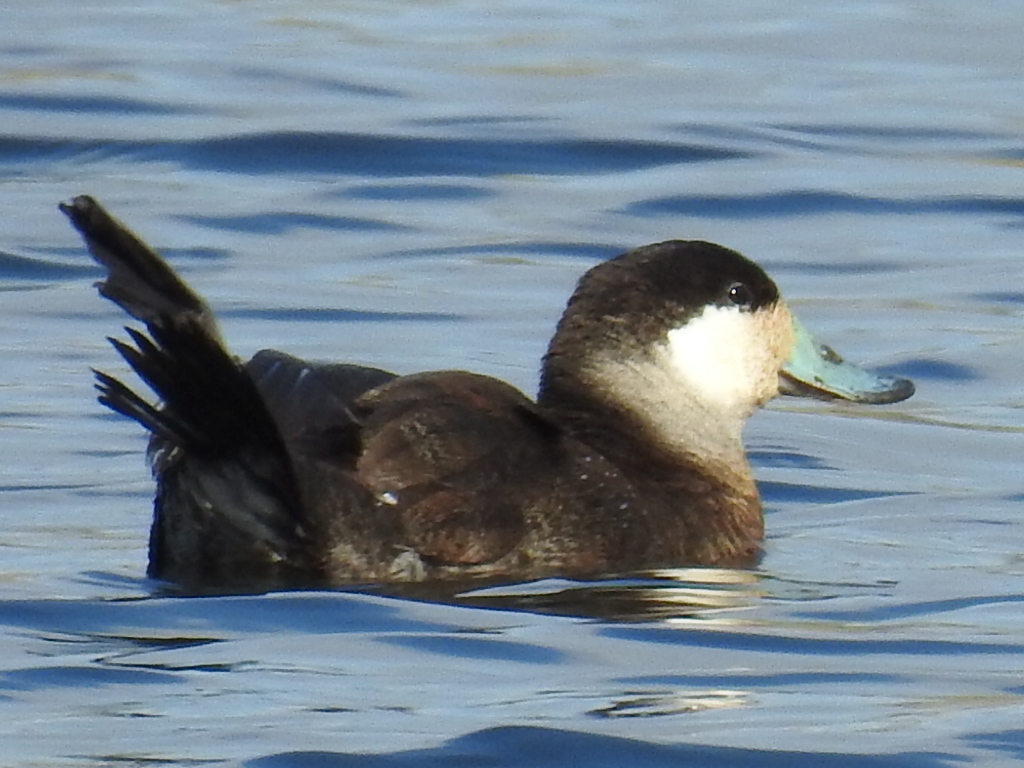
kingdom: Animalia
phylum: Chordata
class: Aves
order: Anseriformes
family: Anatidae
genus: Oxyura
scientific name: Oxyura jamaicensis
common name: Ruddy duck
